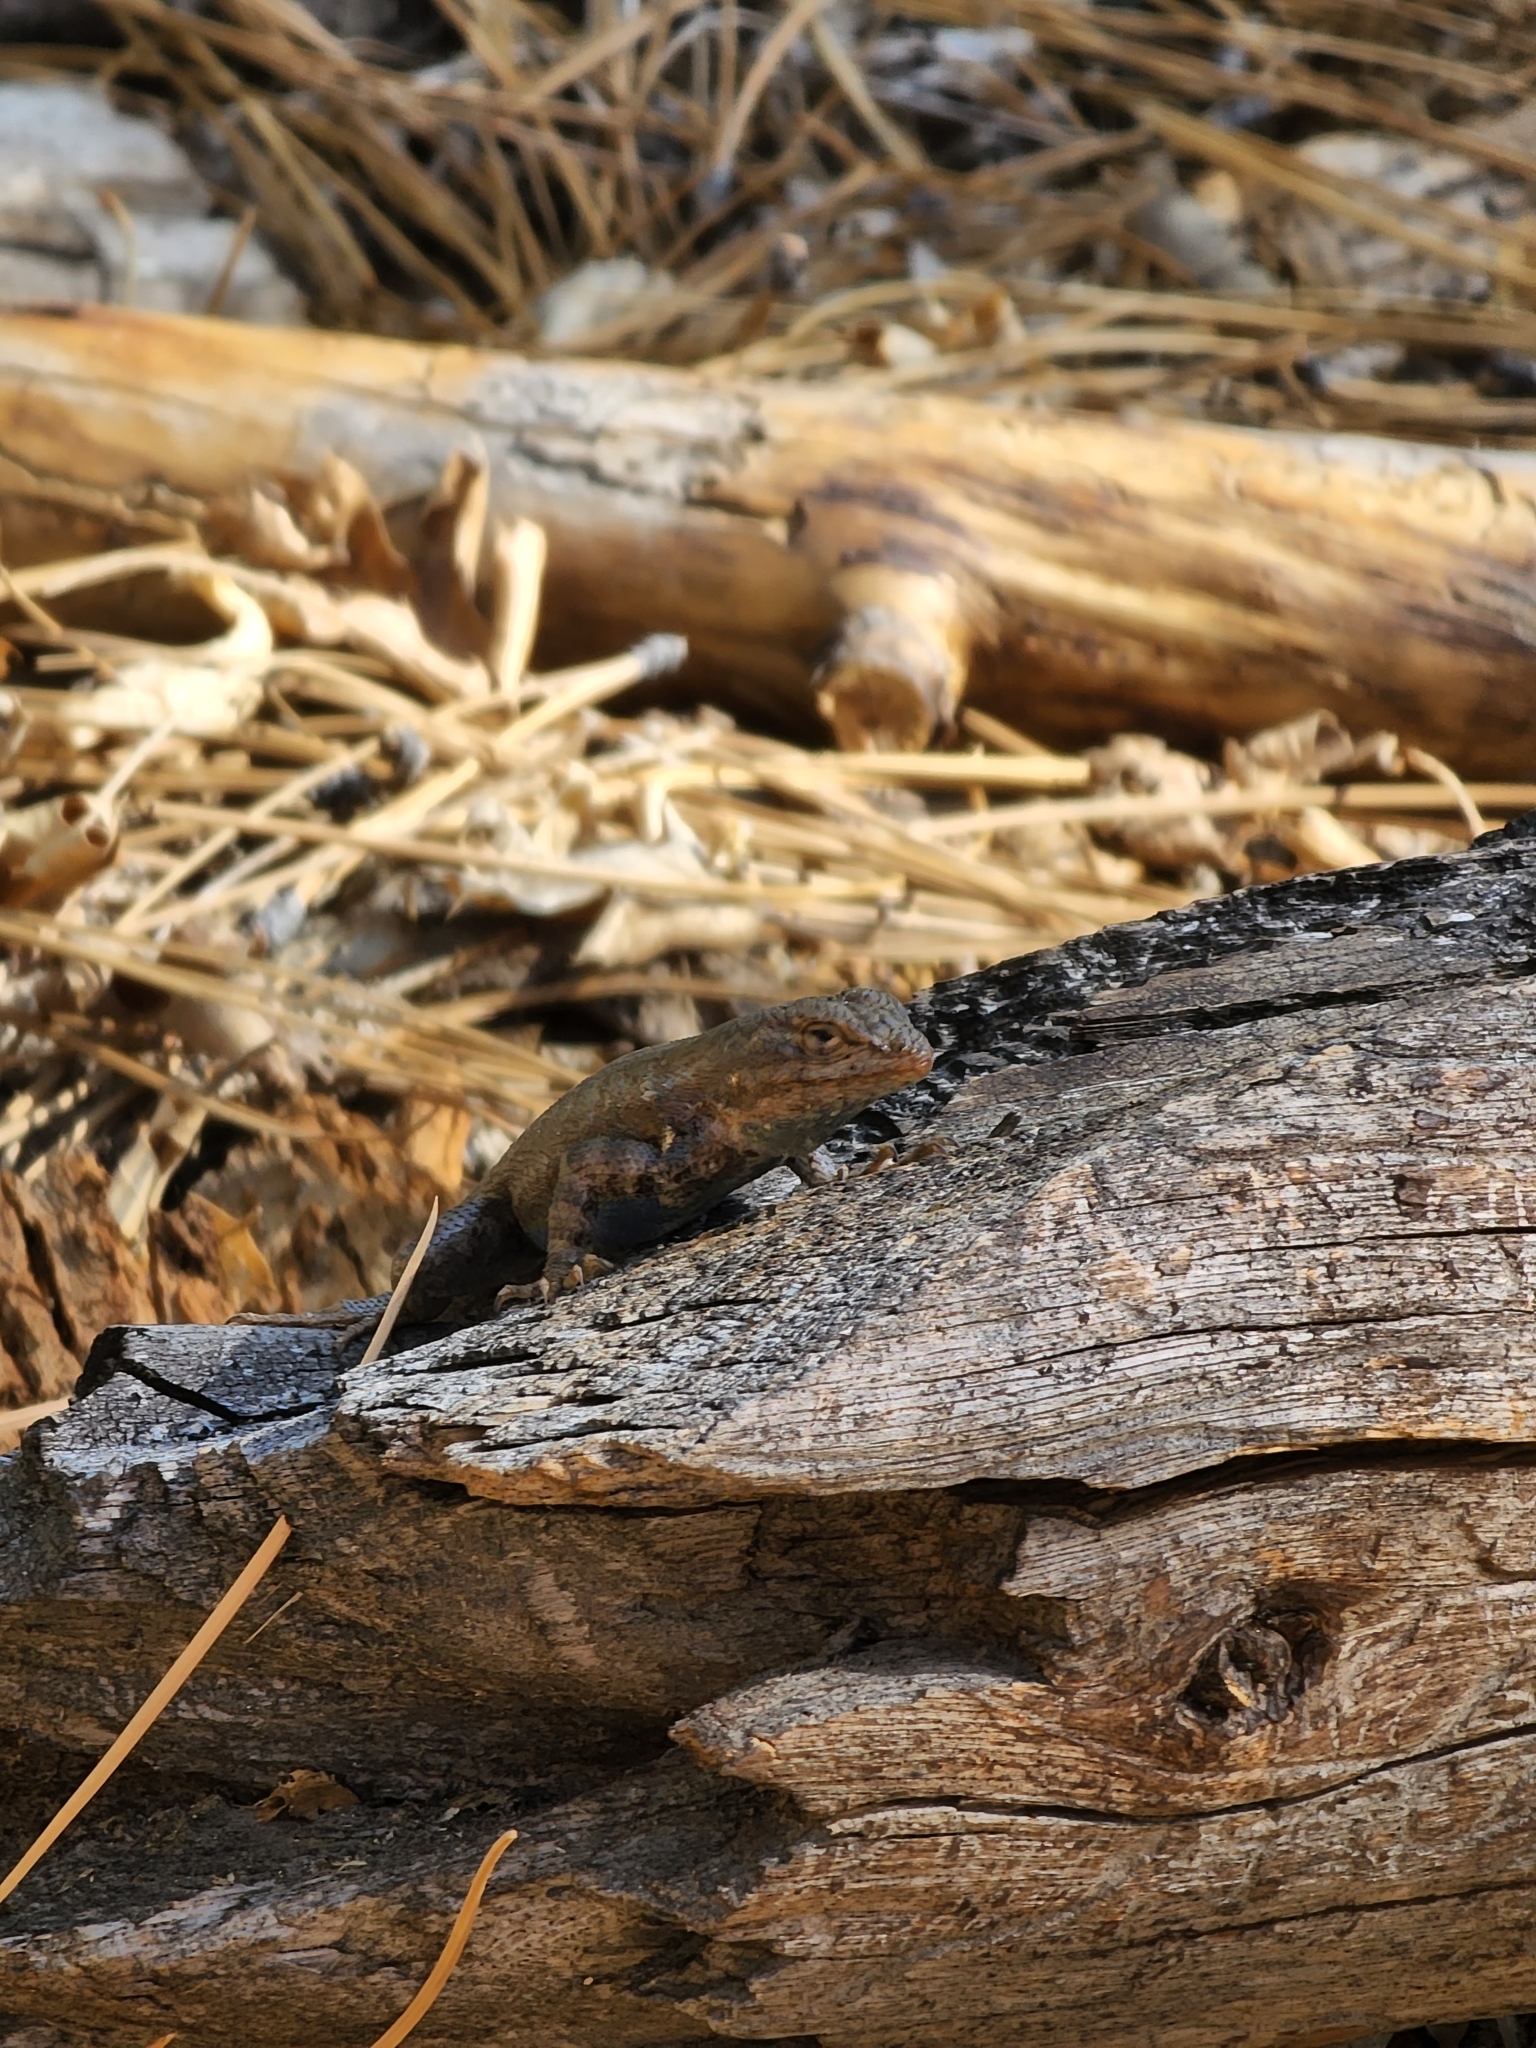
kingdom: Animalia
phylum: Chordata
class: Squamata
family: Phrynosomatidae
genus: Sceloporus
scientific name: Sceloporus occidentalis
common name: Western fence lizard
